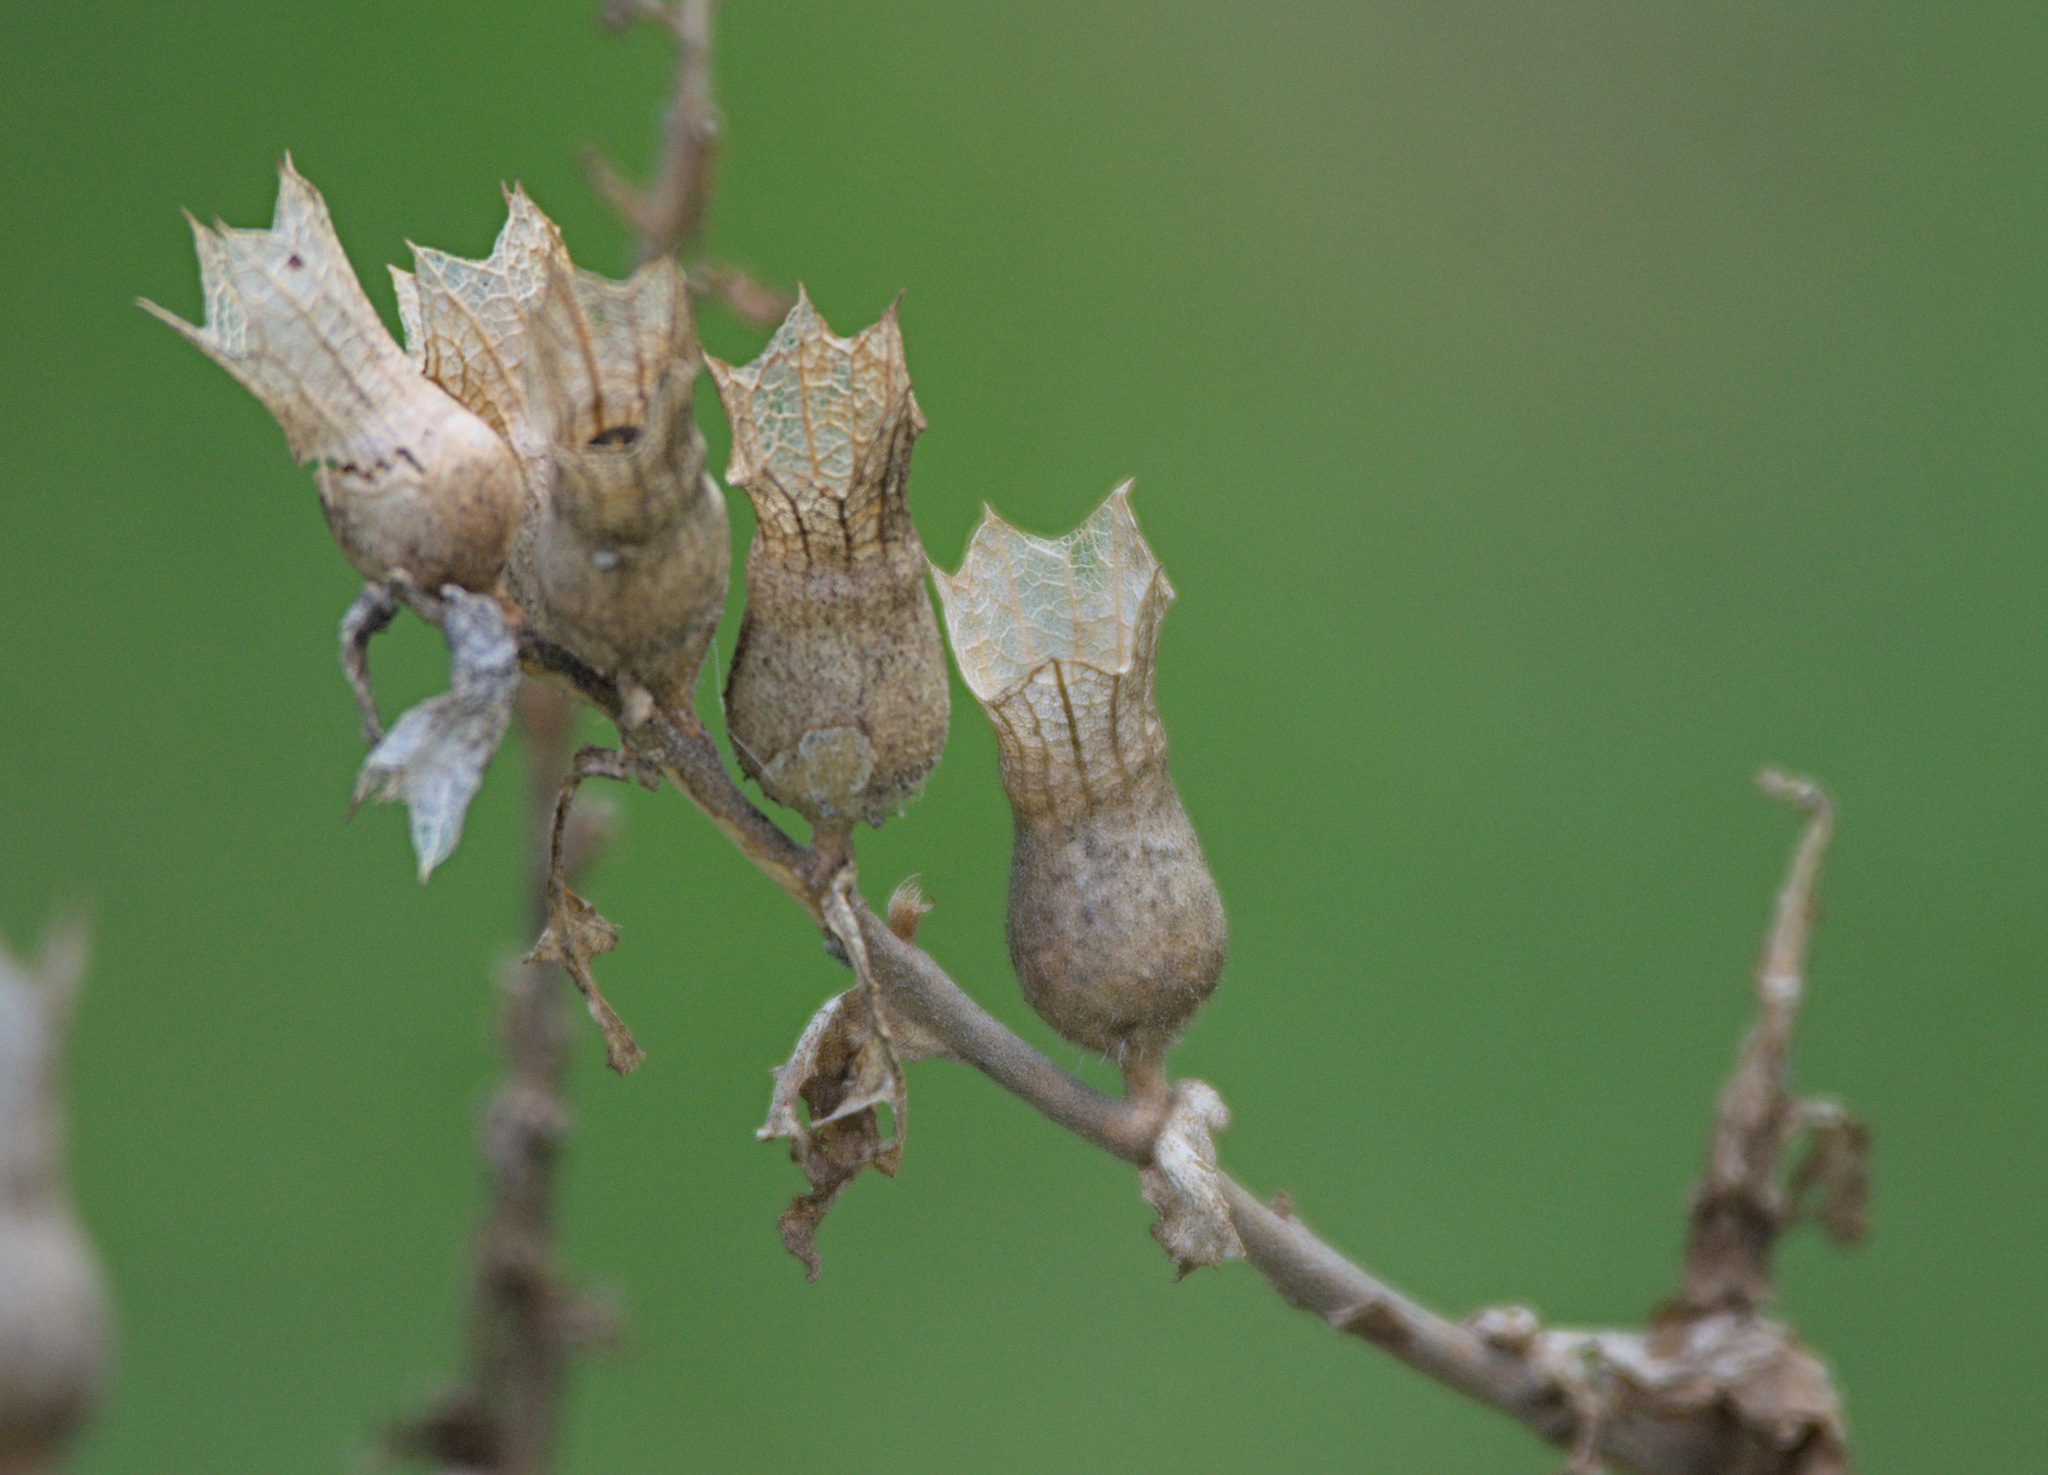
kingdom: Plantae
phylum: Tracheophyta
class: Magnoliopsida
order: Solanales
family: Solanaceae
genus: Hyoscyamus
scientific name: Hyoscyamus niger
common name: Henbane
